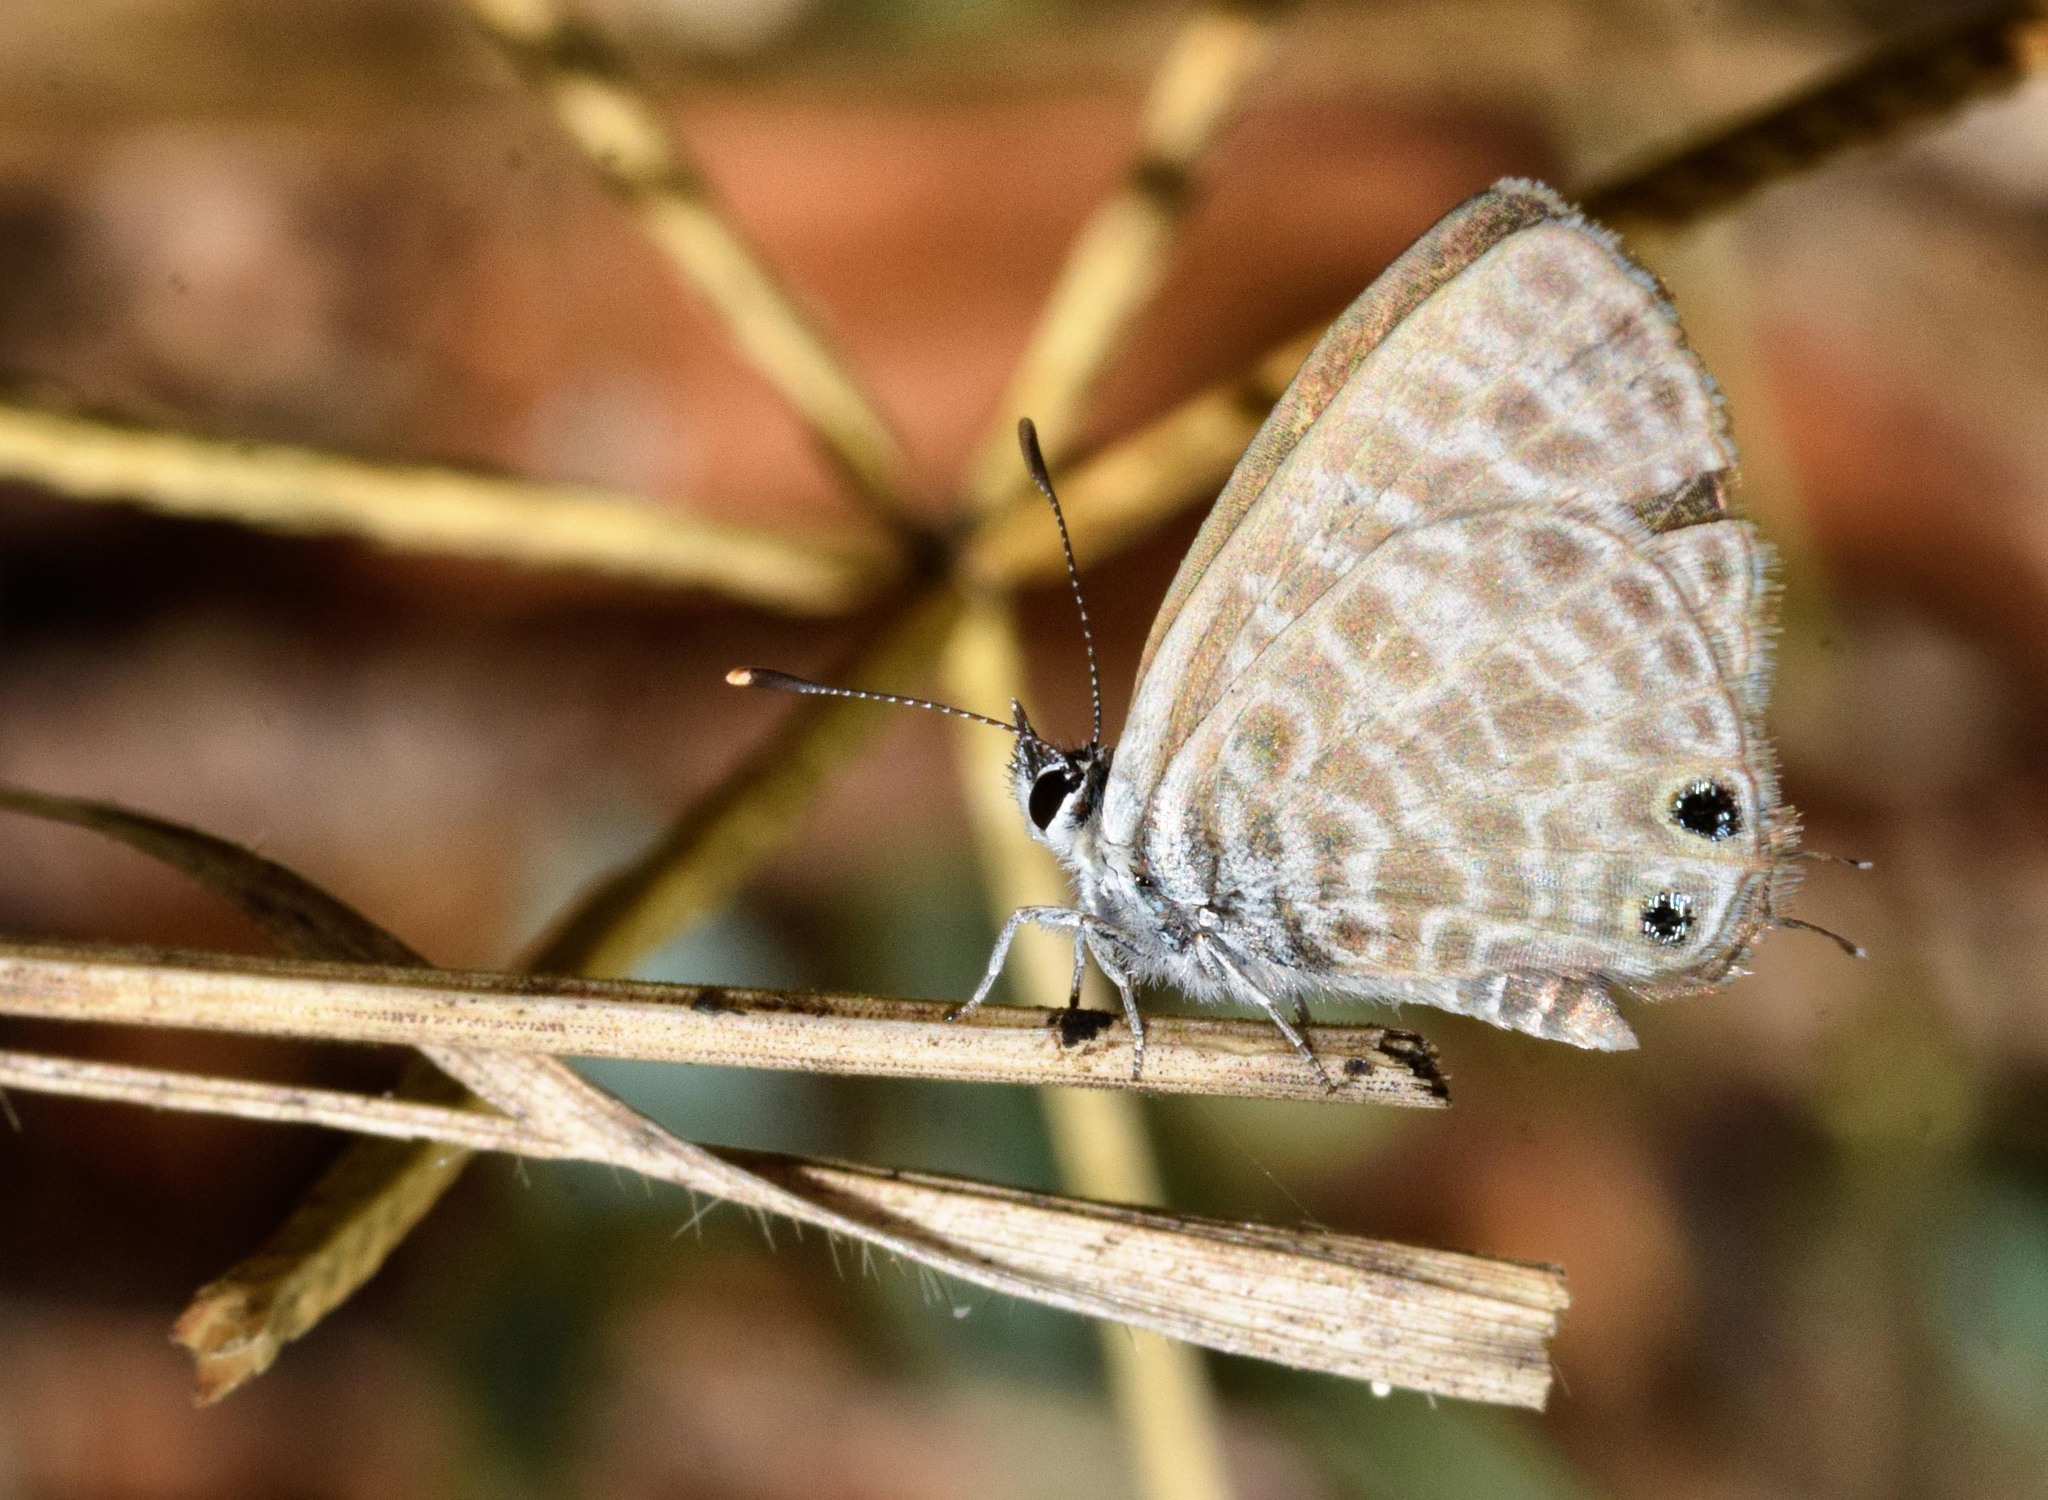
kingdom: Animalia
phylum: Arthropoda
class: Insecta
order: Lepidoptera
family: Lycaenidae
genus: Leptotes
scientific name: Leptotes pirithous
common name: Lang's short-tailed blue
